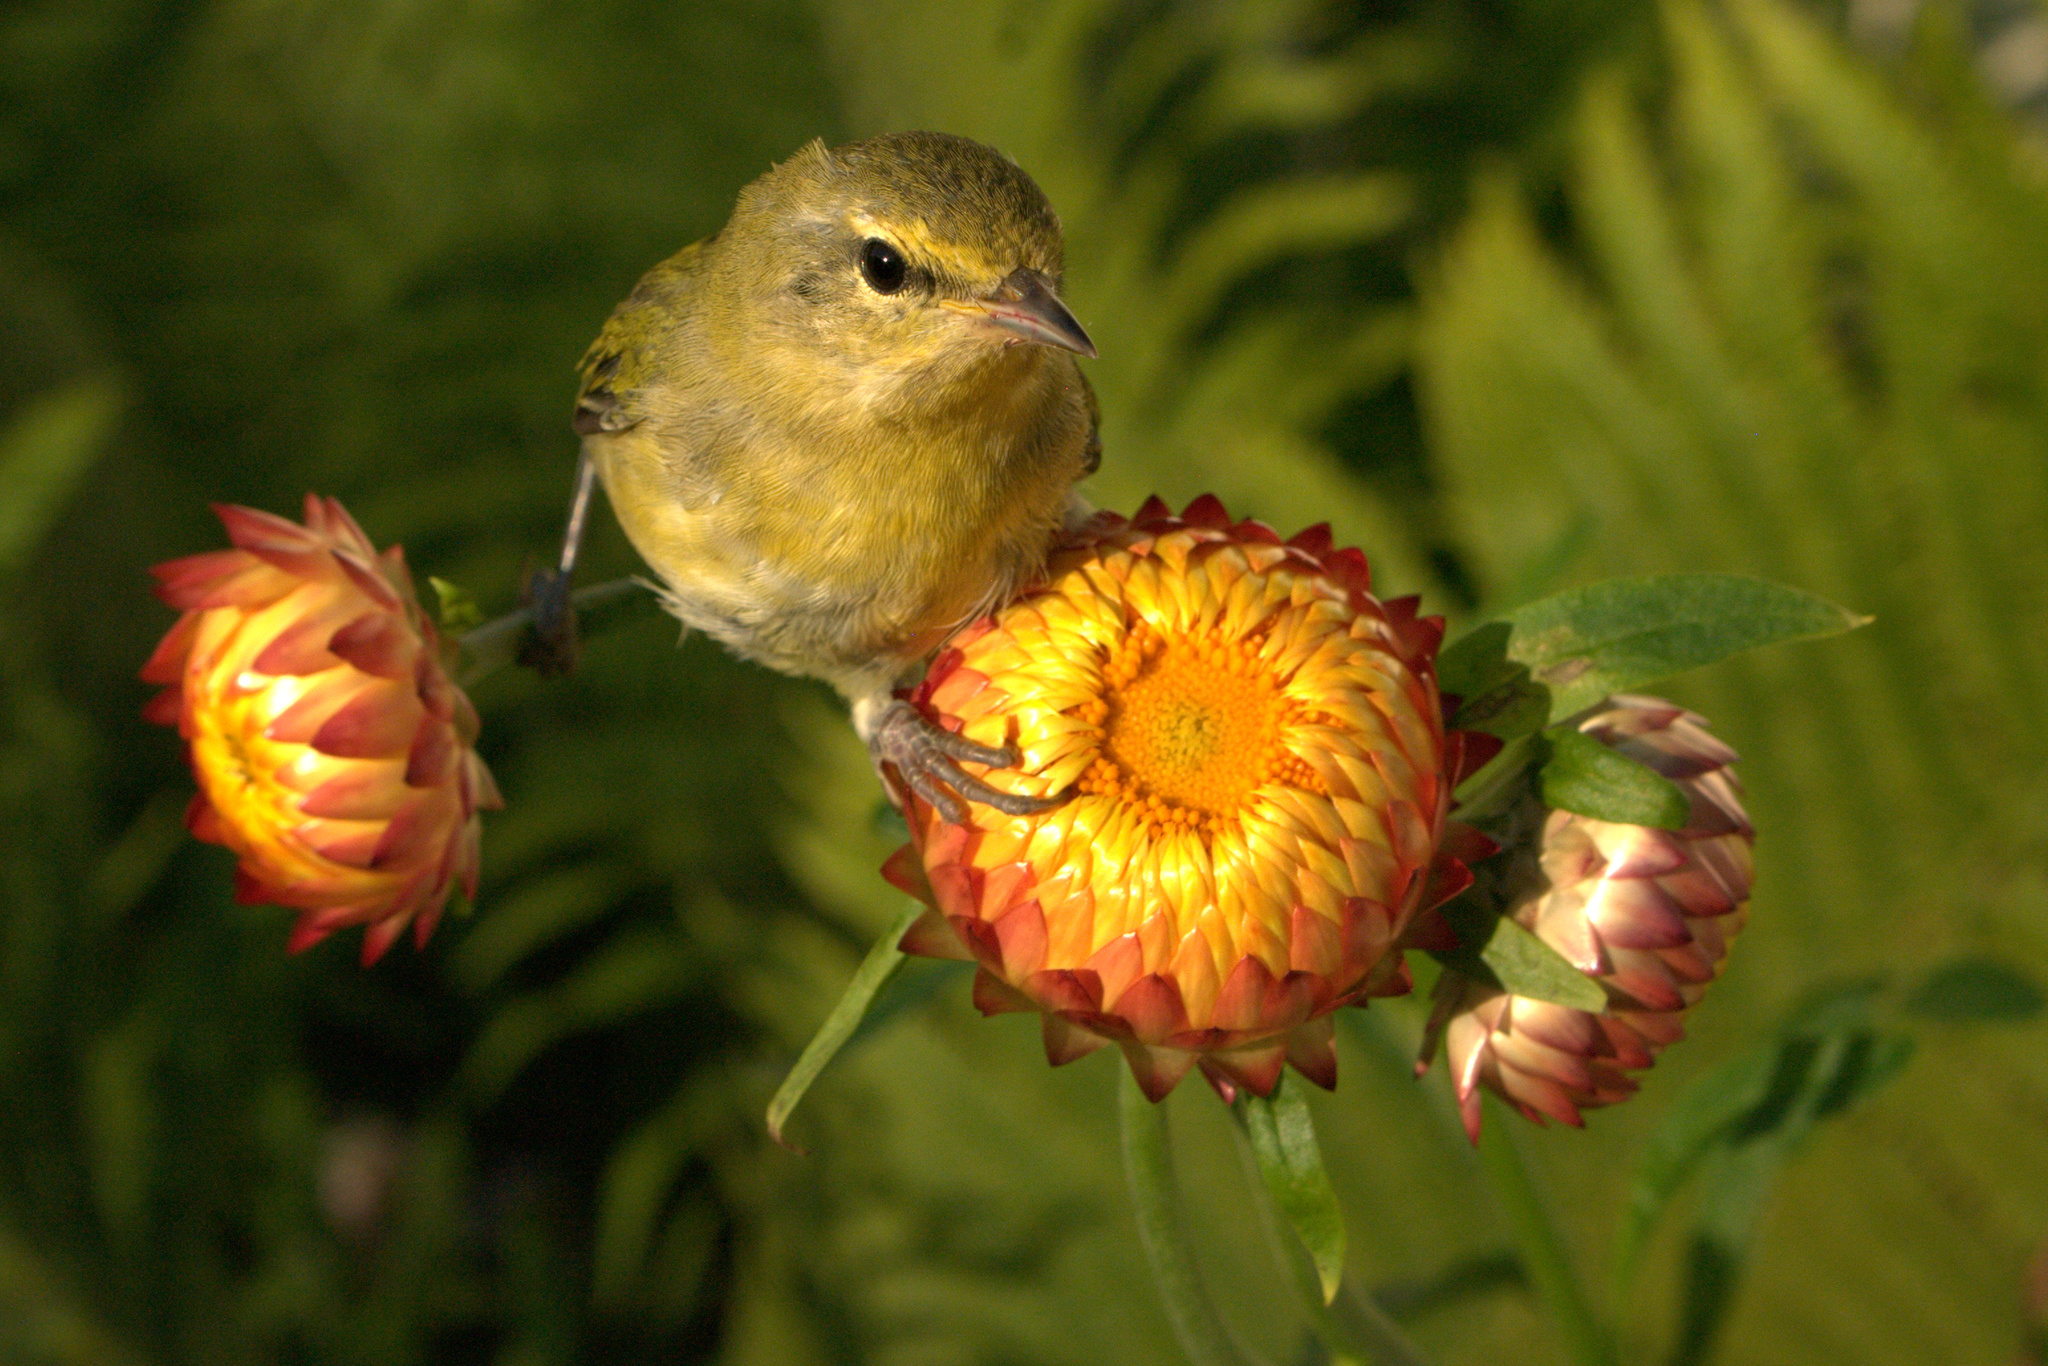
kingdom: Animalia
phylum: Chordata
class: Aves
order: Passeriformes
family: Parulidae
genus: Leiothlypis
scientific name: Leiothlypis celata
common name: Orange-crowned warbler
